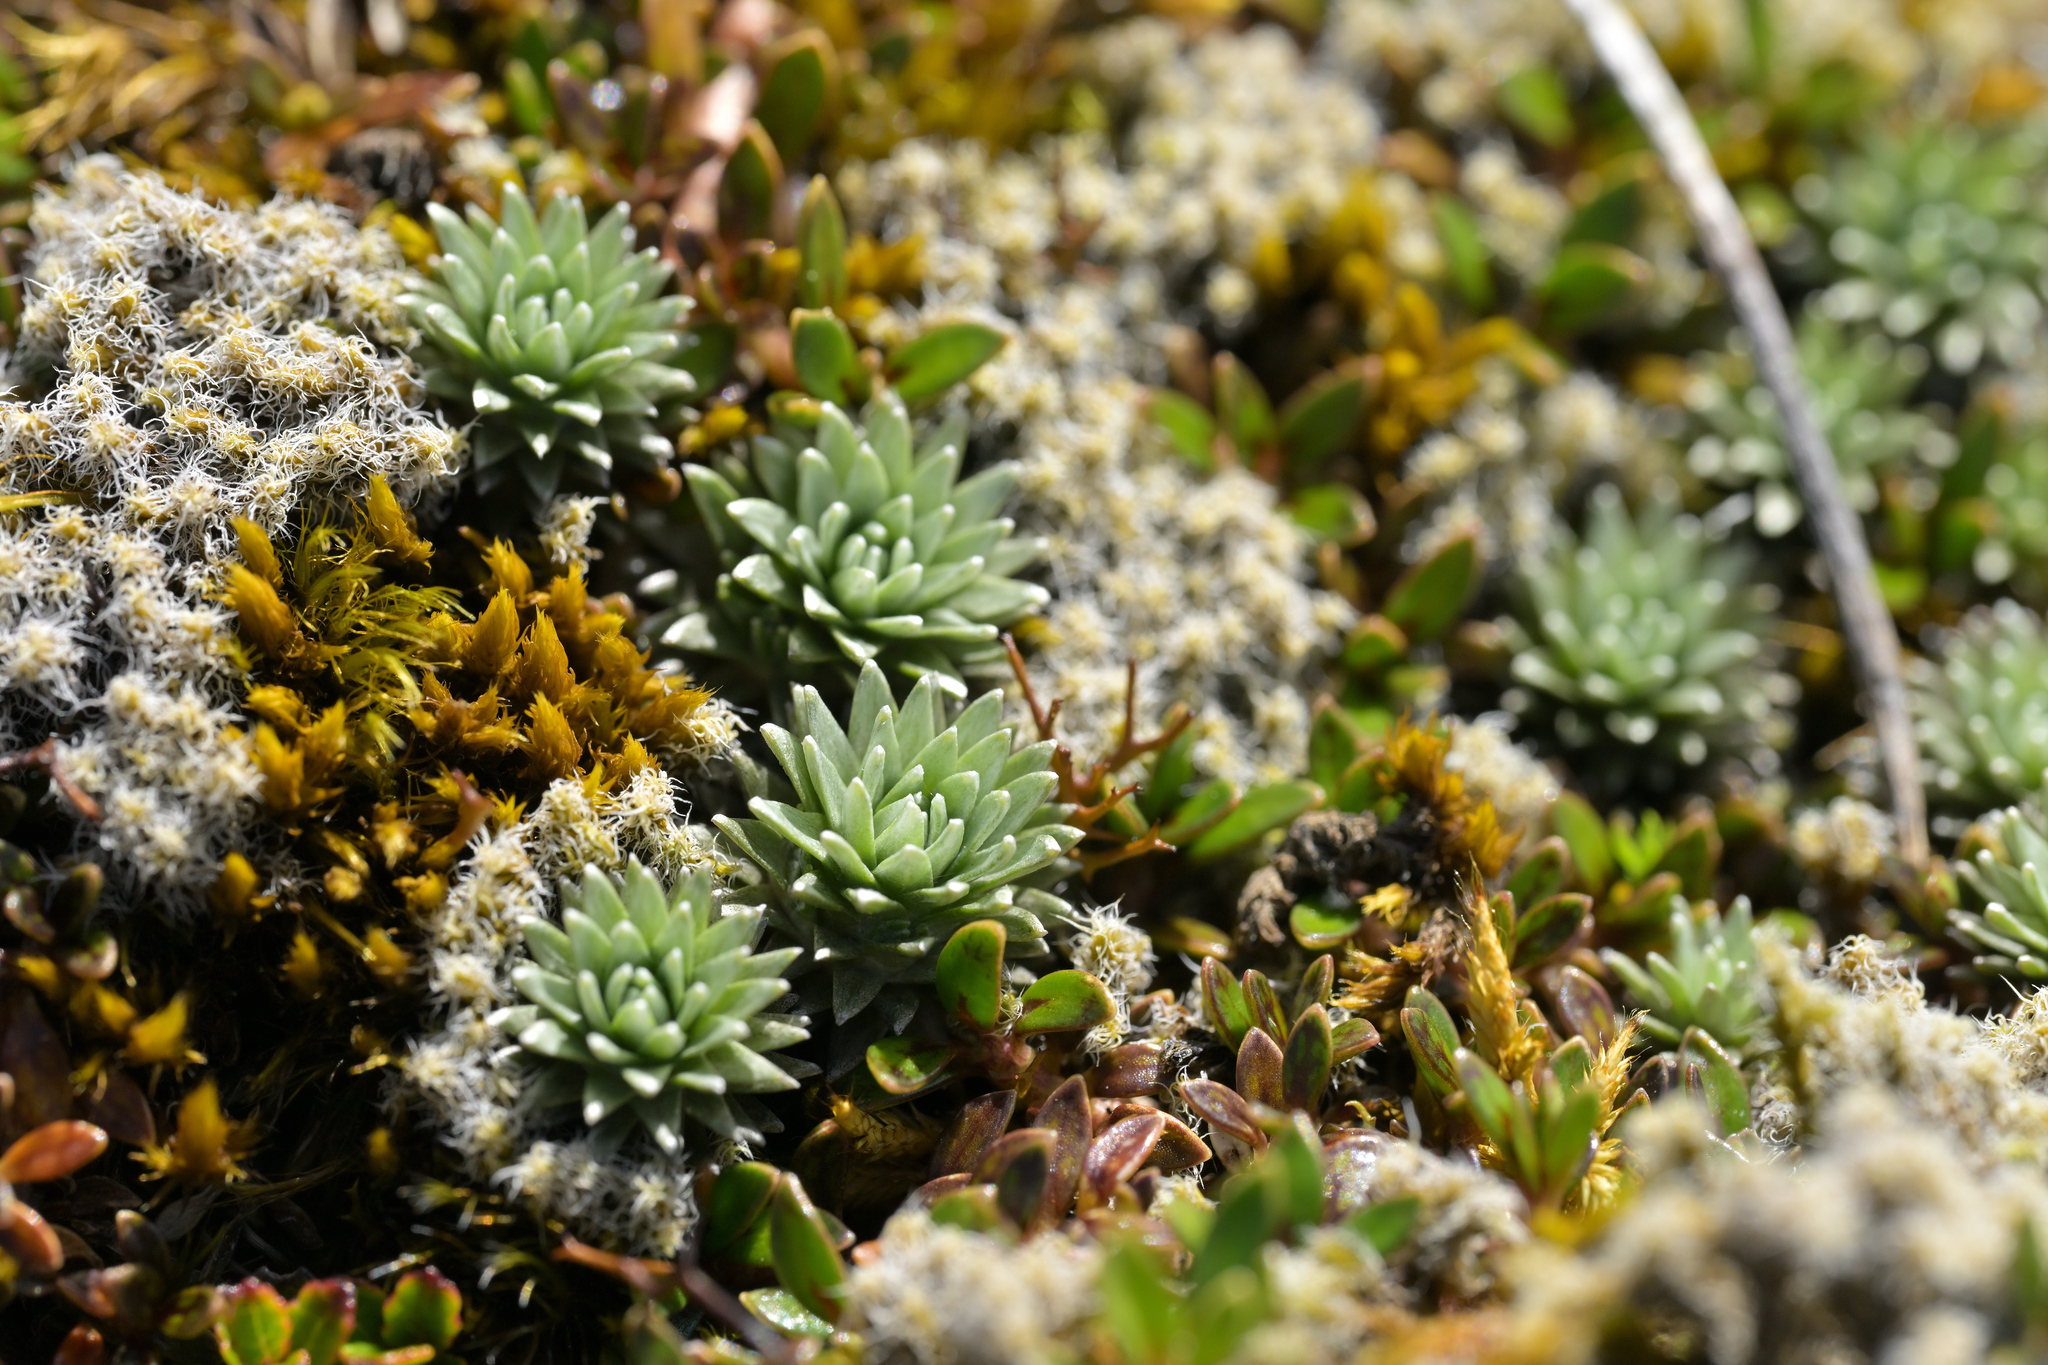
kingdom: Plantae
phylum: Tracheophyta
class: Magnoliopsida
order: Asterales
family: Asteraceae
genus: Raoulia
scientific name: Raoulia grandiflora
